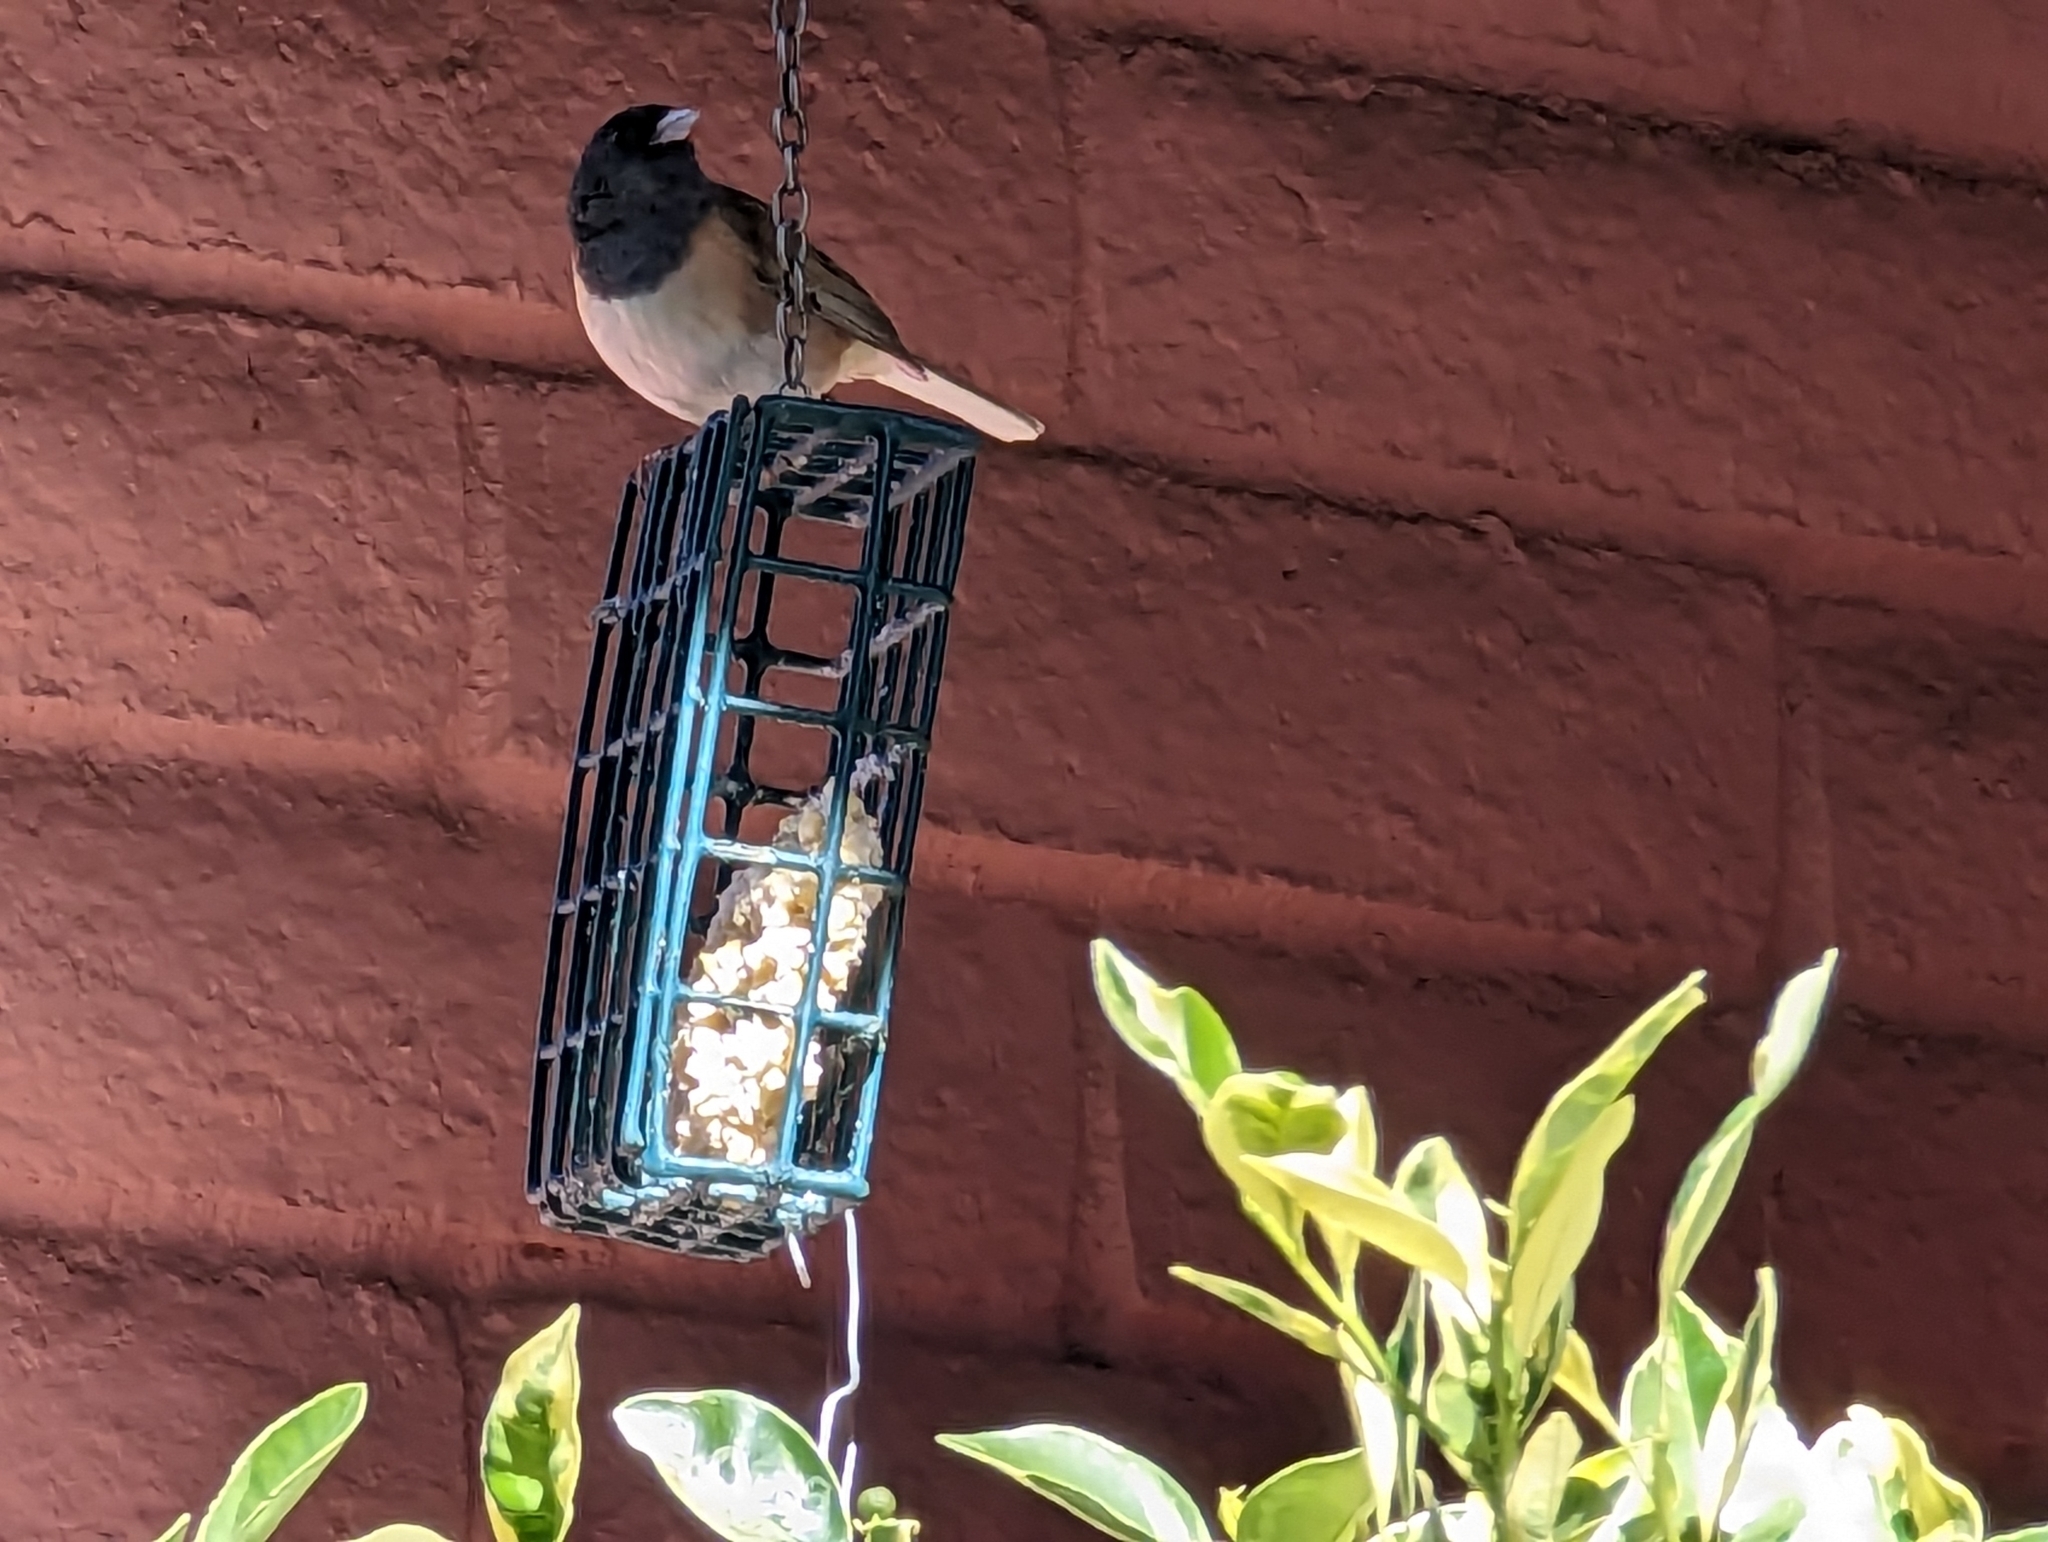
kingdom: Animalia
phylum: Chordata
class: Aves
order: Passeriformes
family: Passerellidae
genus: Junco
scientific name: Junco hyemalis
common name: Dark-eyed junco
